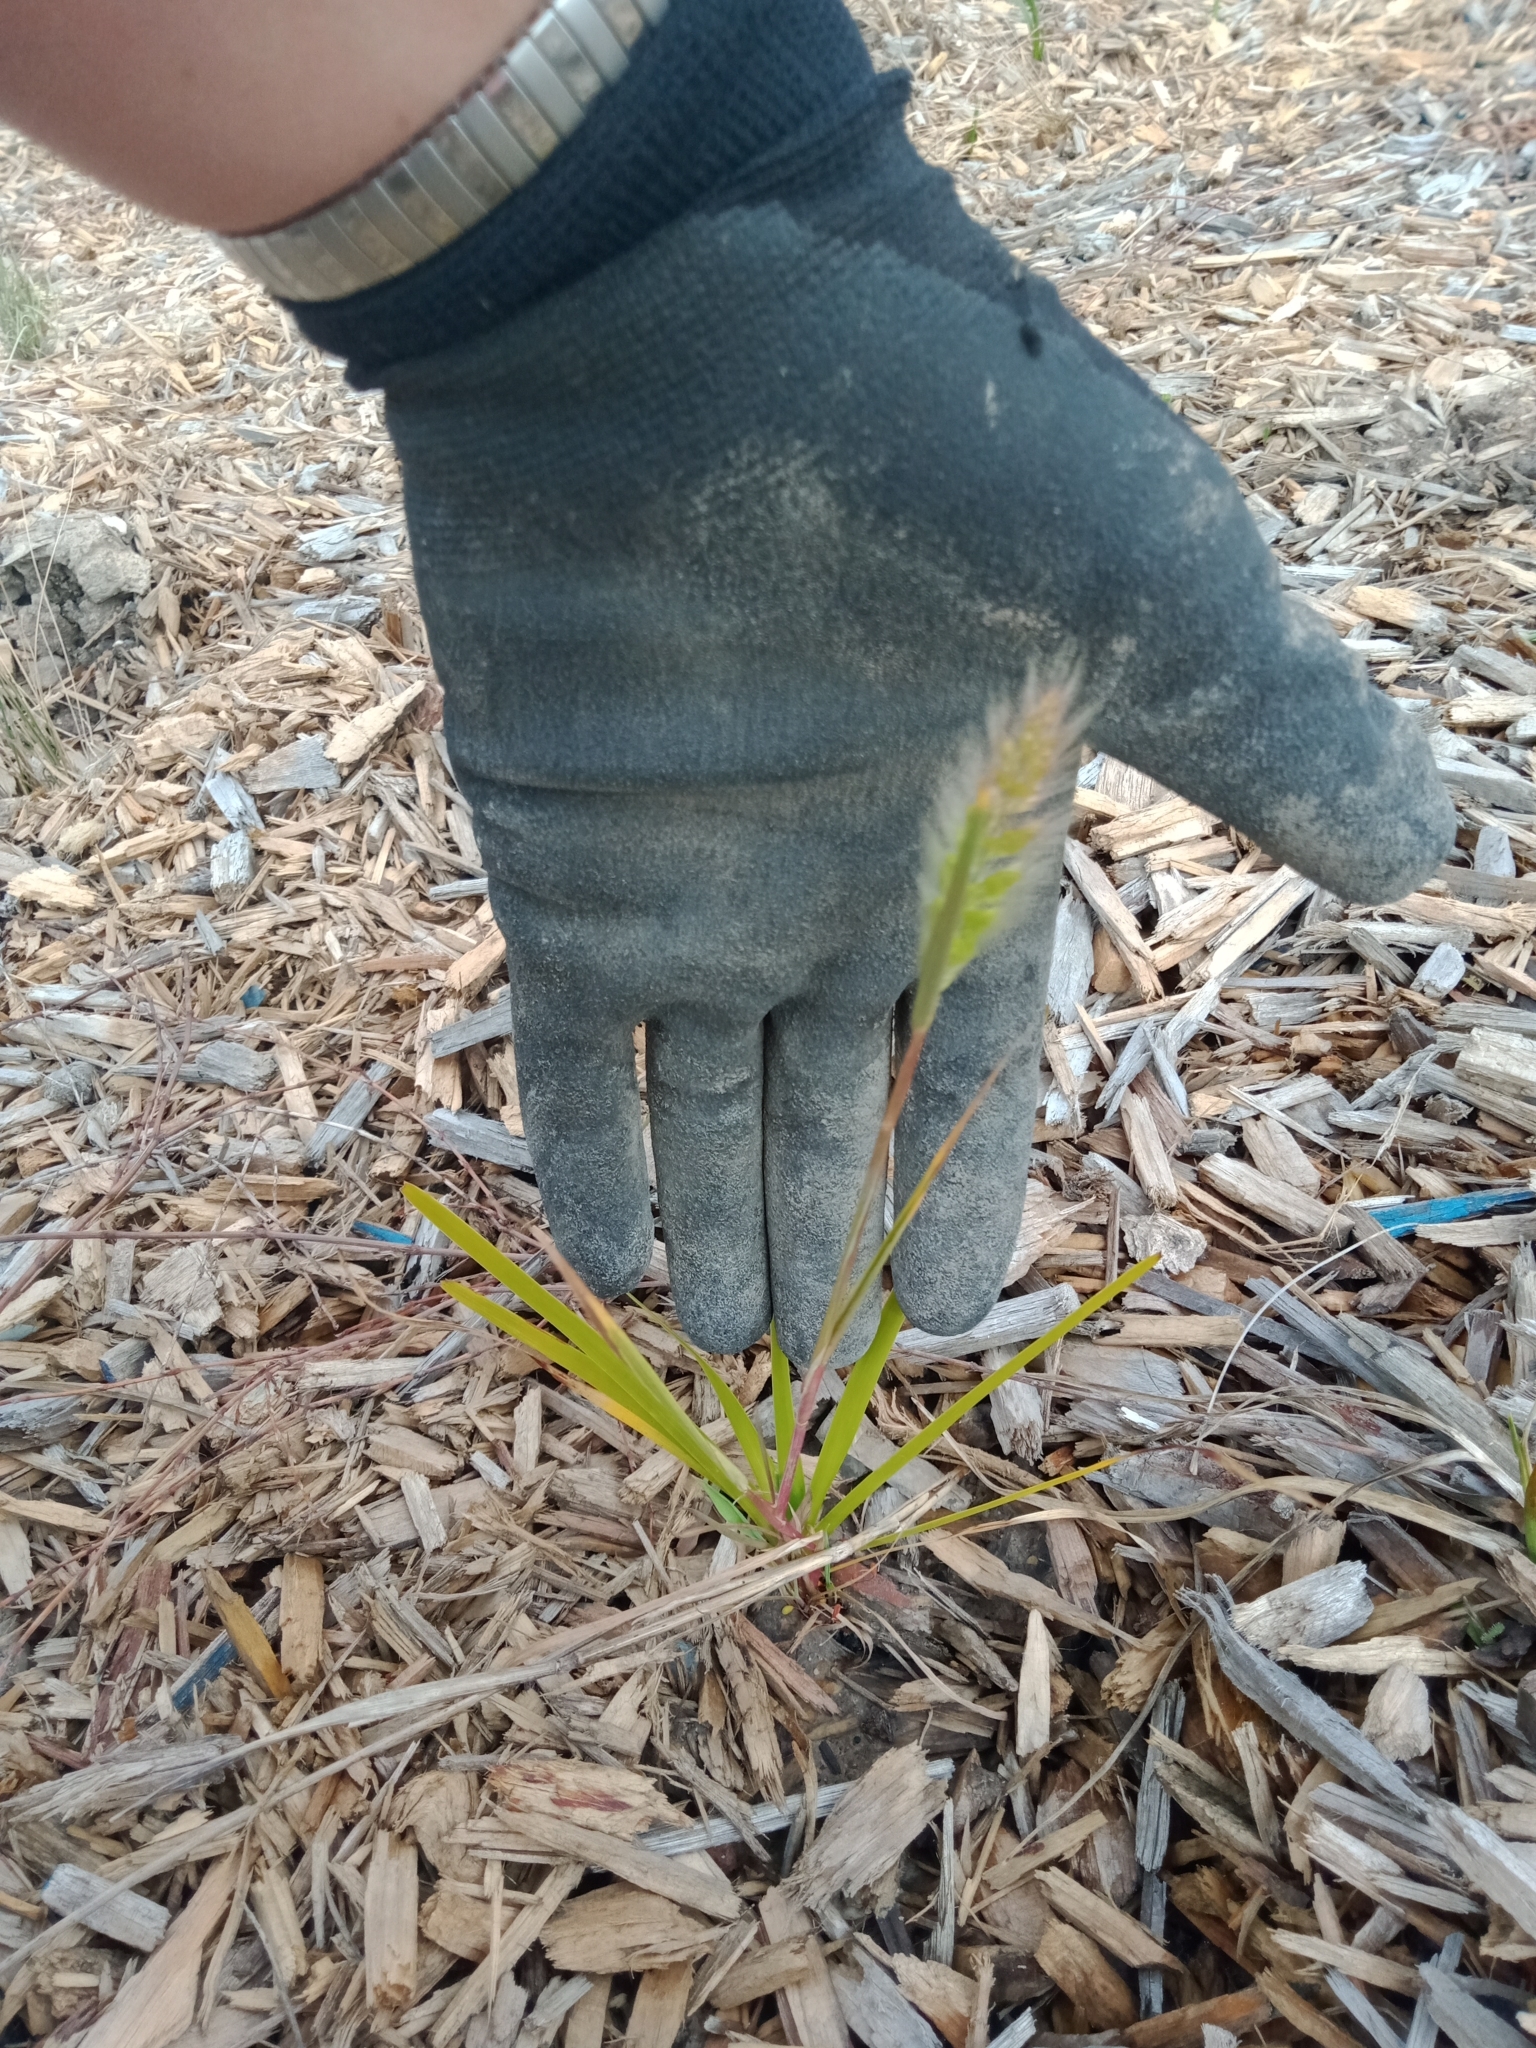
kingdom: Plantae
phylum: Tracheophyta
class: Liliopsida
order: Poales
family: Poaceae
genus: Polypogon
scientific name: Polypogon monspeliensis
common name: Annual rabbitsfoot grass
